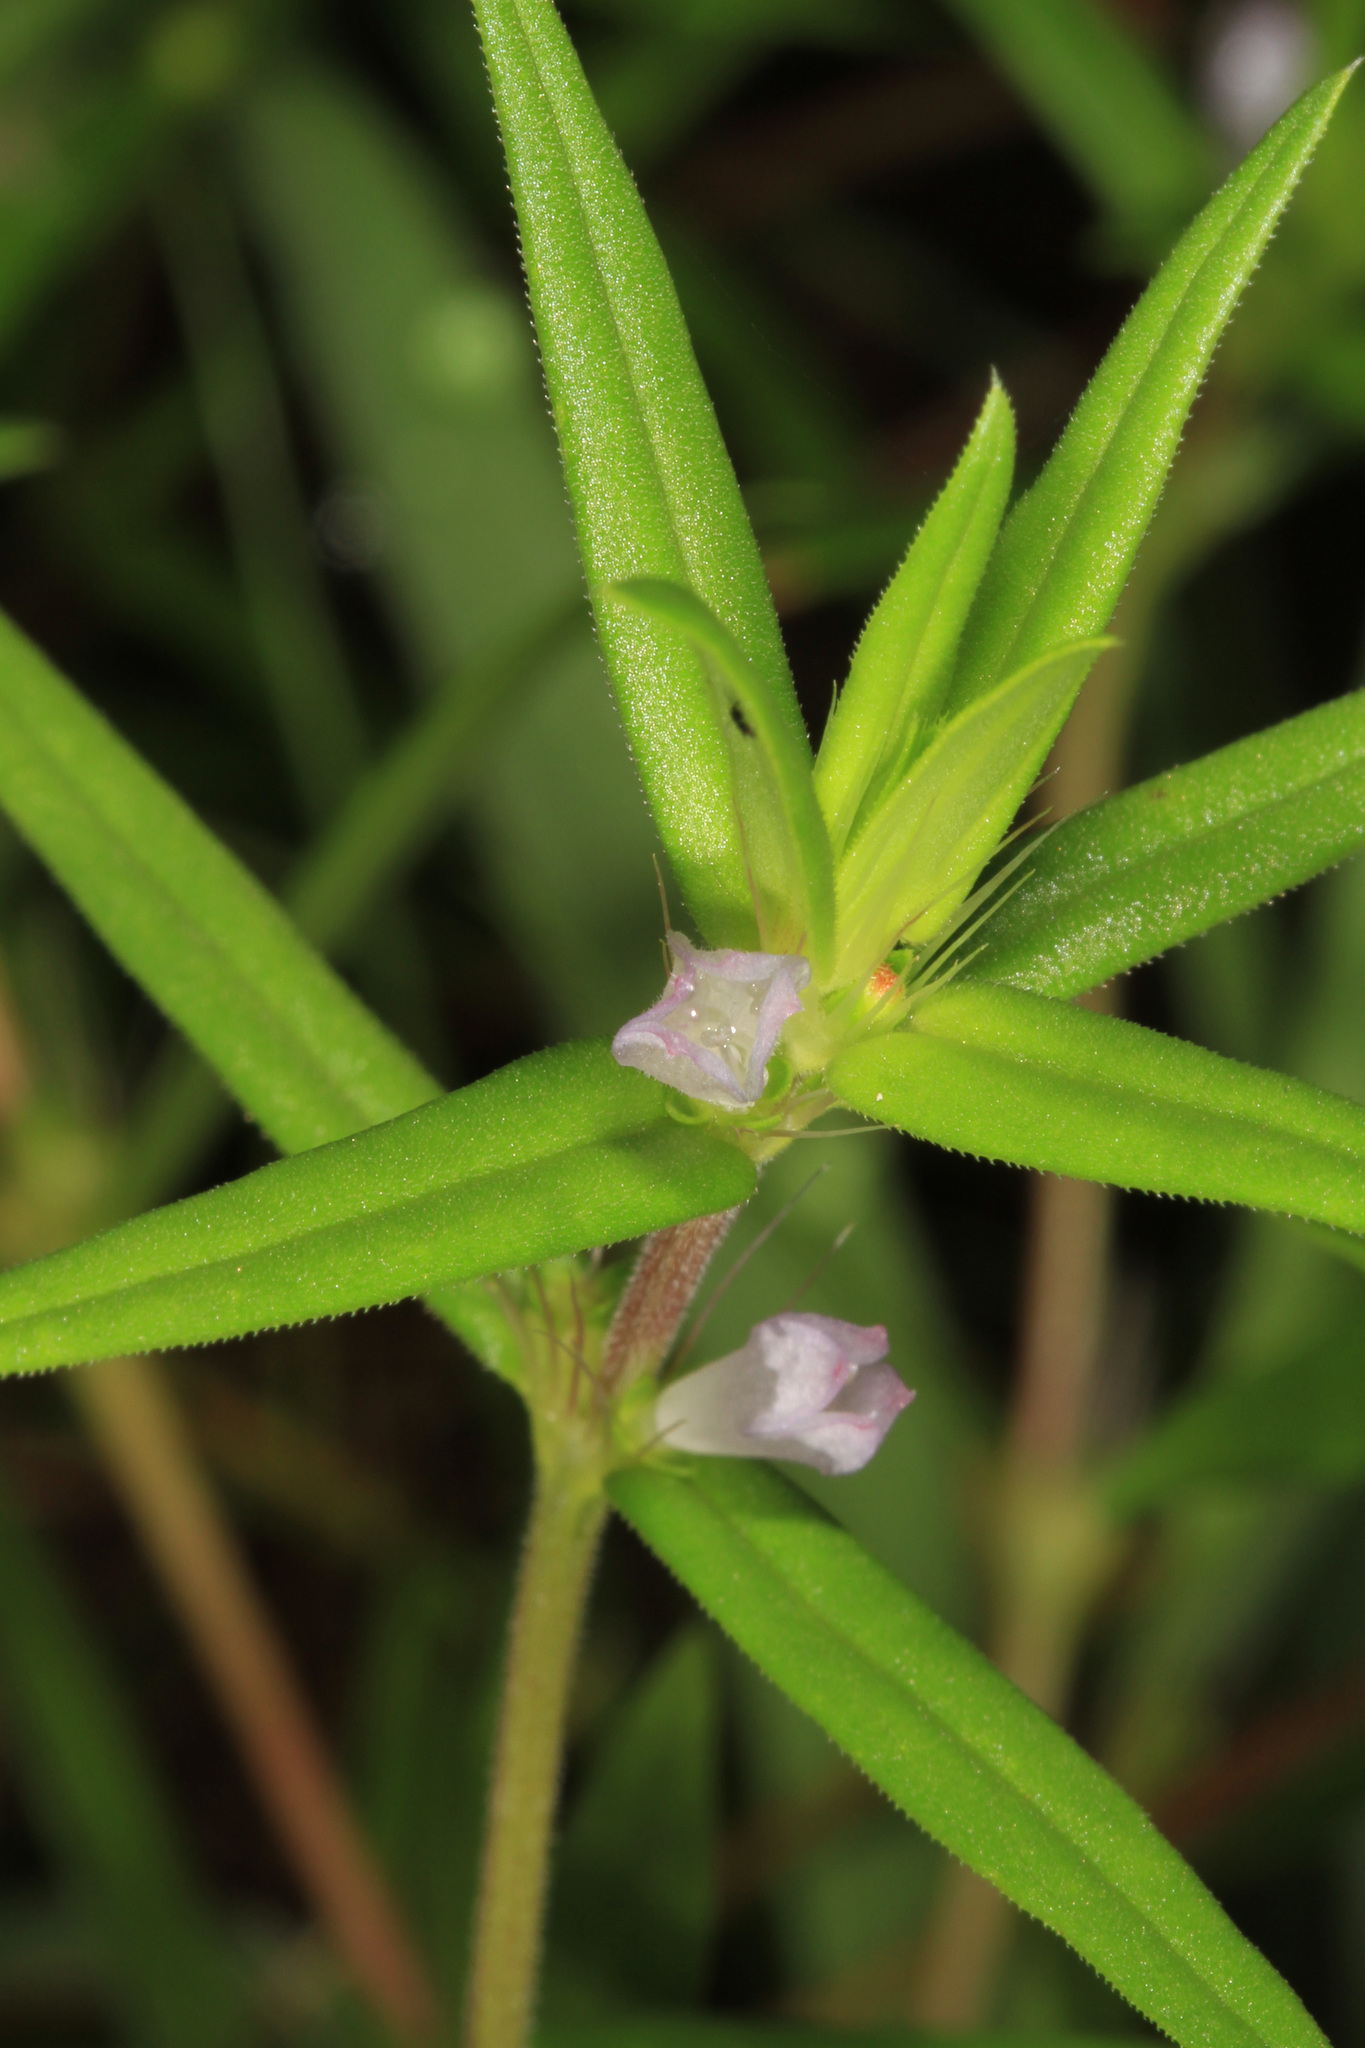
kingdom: Plantae
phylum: Tracheophyta
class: Magnoliopsida
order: Gentianales
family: Rubiaceae
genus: Hexasepalum
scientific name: Hexasepalum teres
